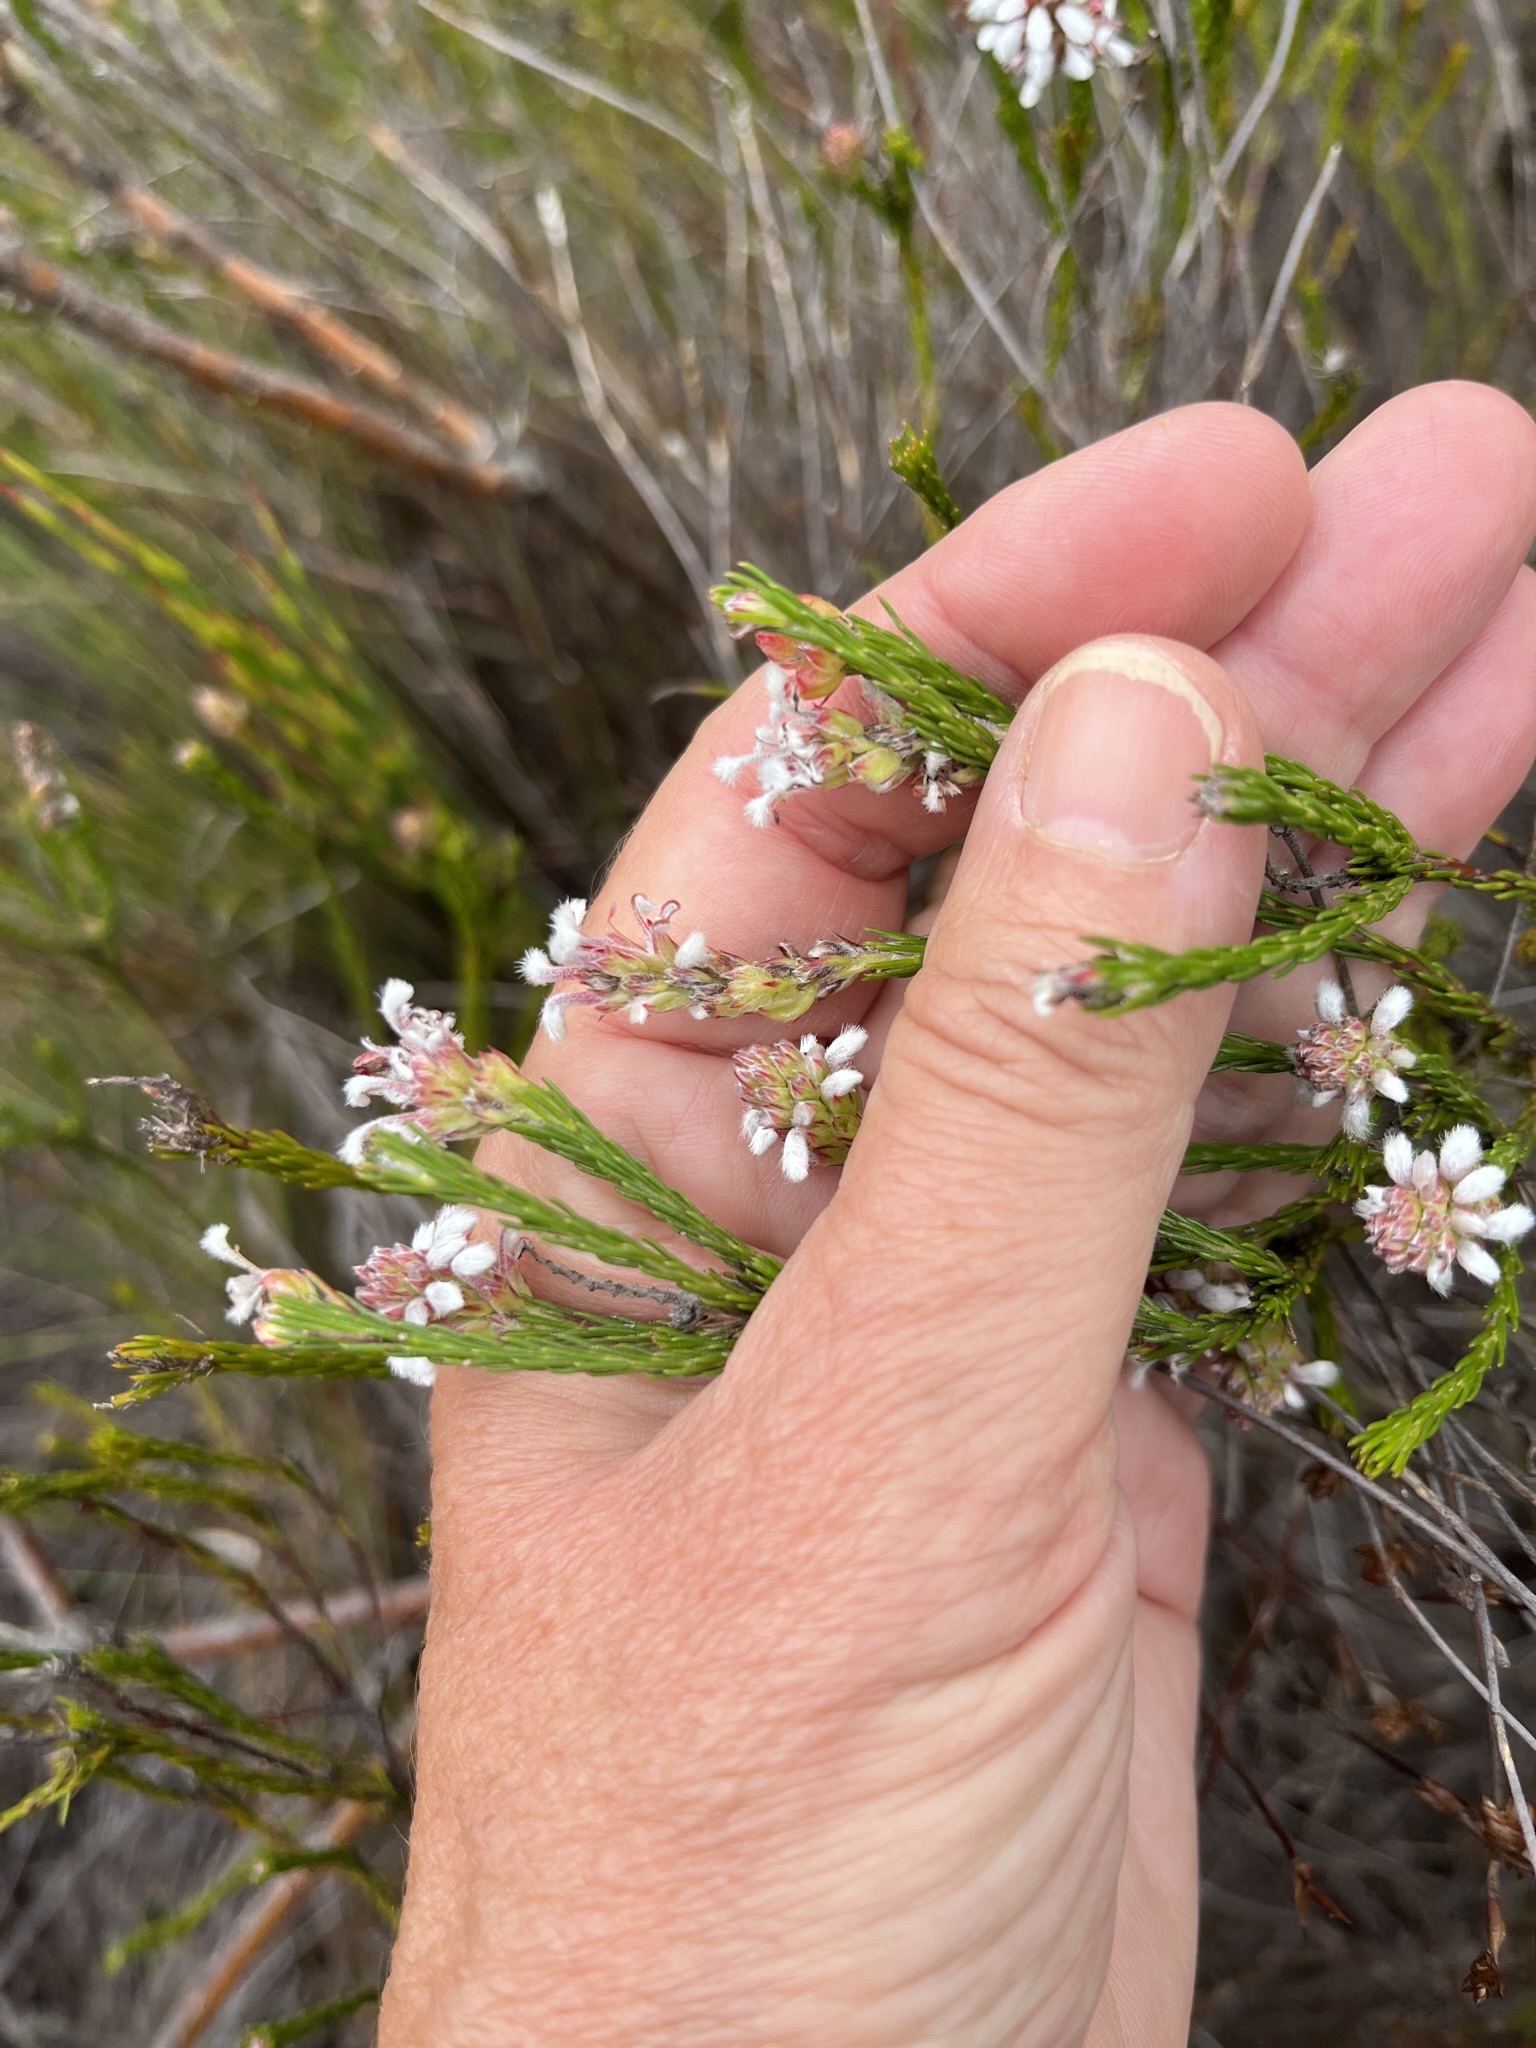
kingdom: Plantae
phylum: Tracheophyta
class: Magnoliopsida
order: Proteales
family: Proteaceae
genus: Spatalla
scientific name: Spatalla ericoides
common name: Erica-leaf spoon
